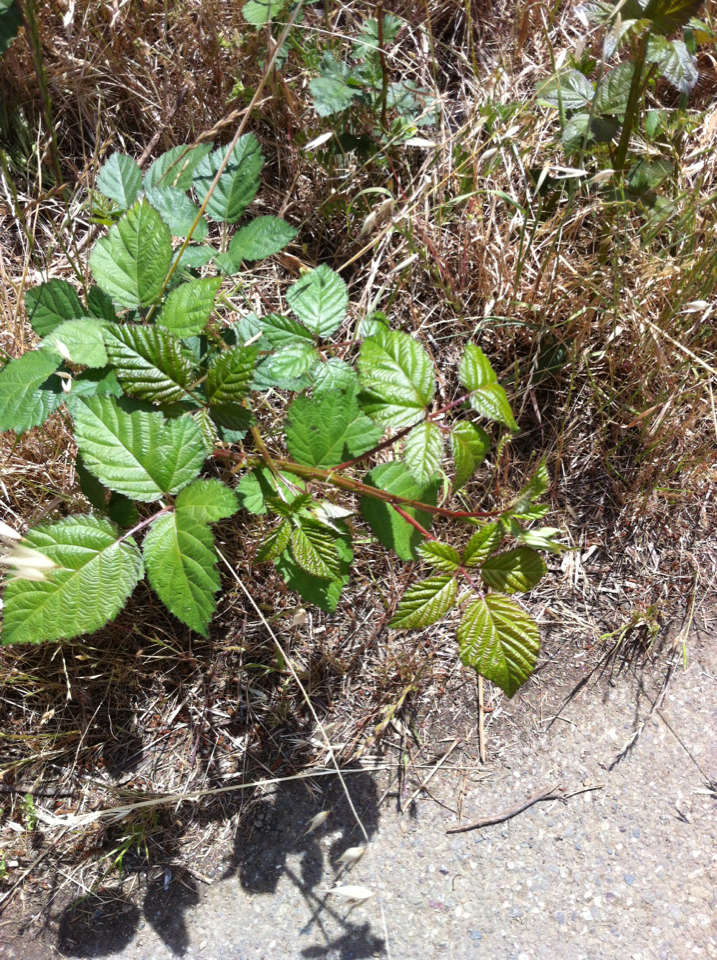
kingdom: Plantae
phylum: Tracheophyta
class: Magnoliopsida
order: Rosales
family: Rosaceae
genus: Rubus
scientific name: Rubus armeniacus
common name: Himalayan blackberry
